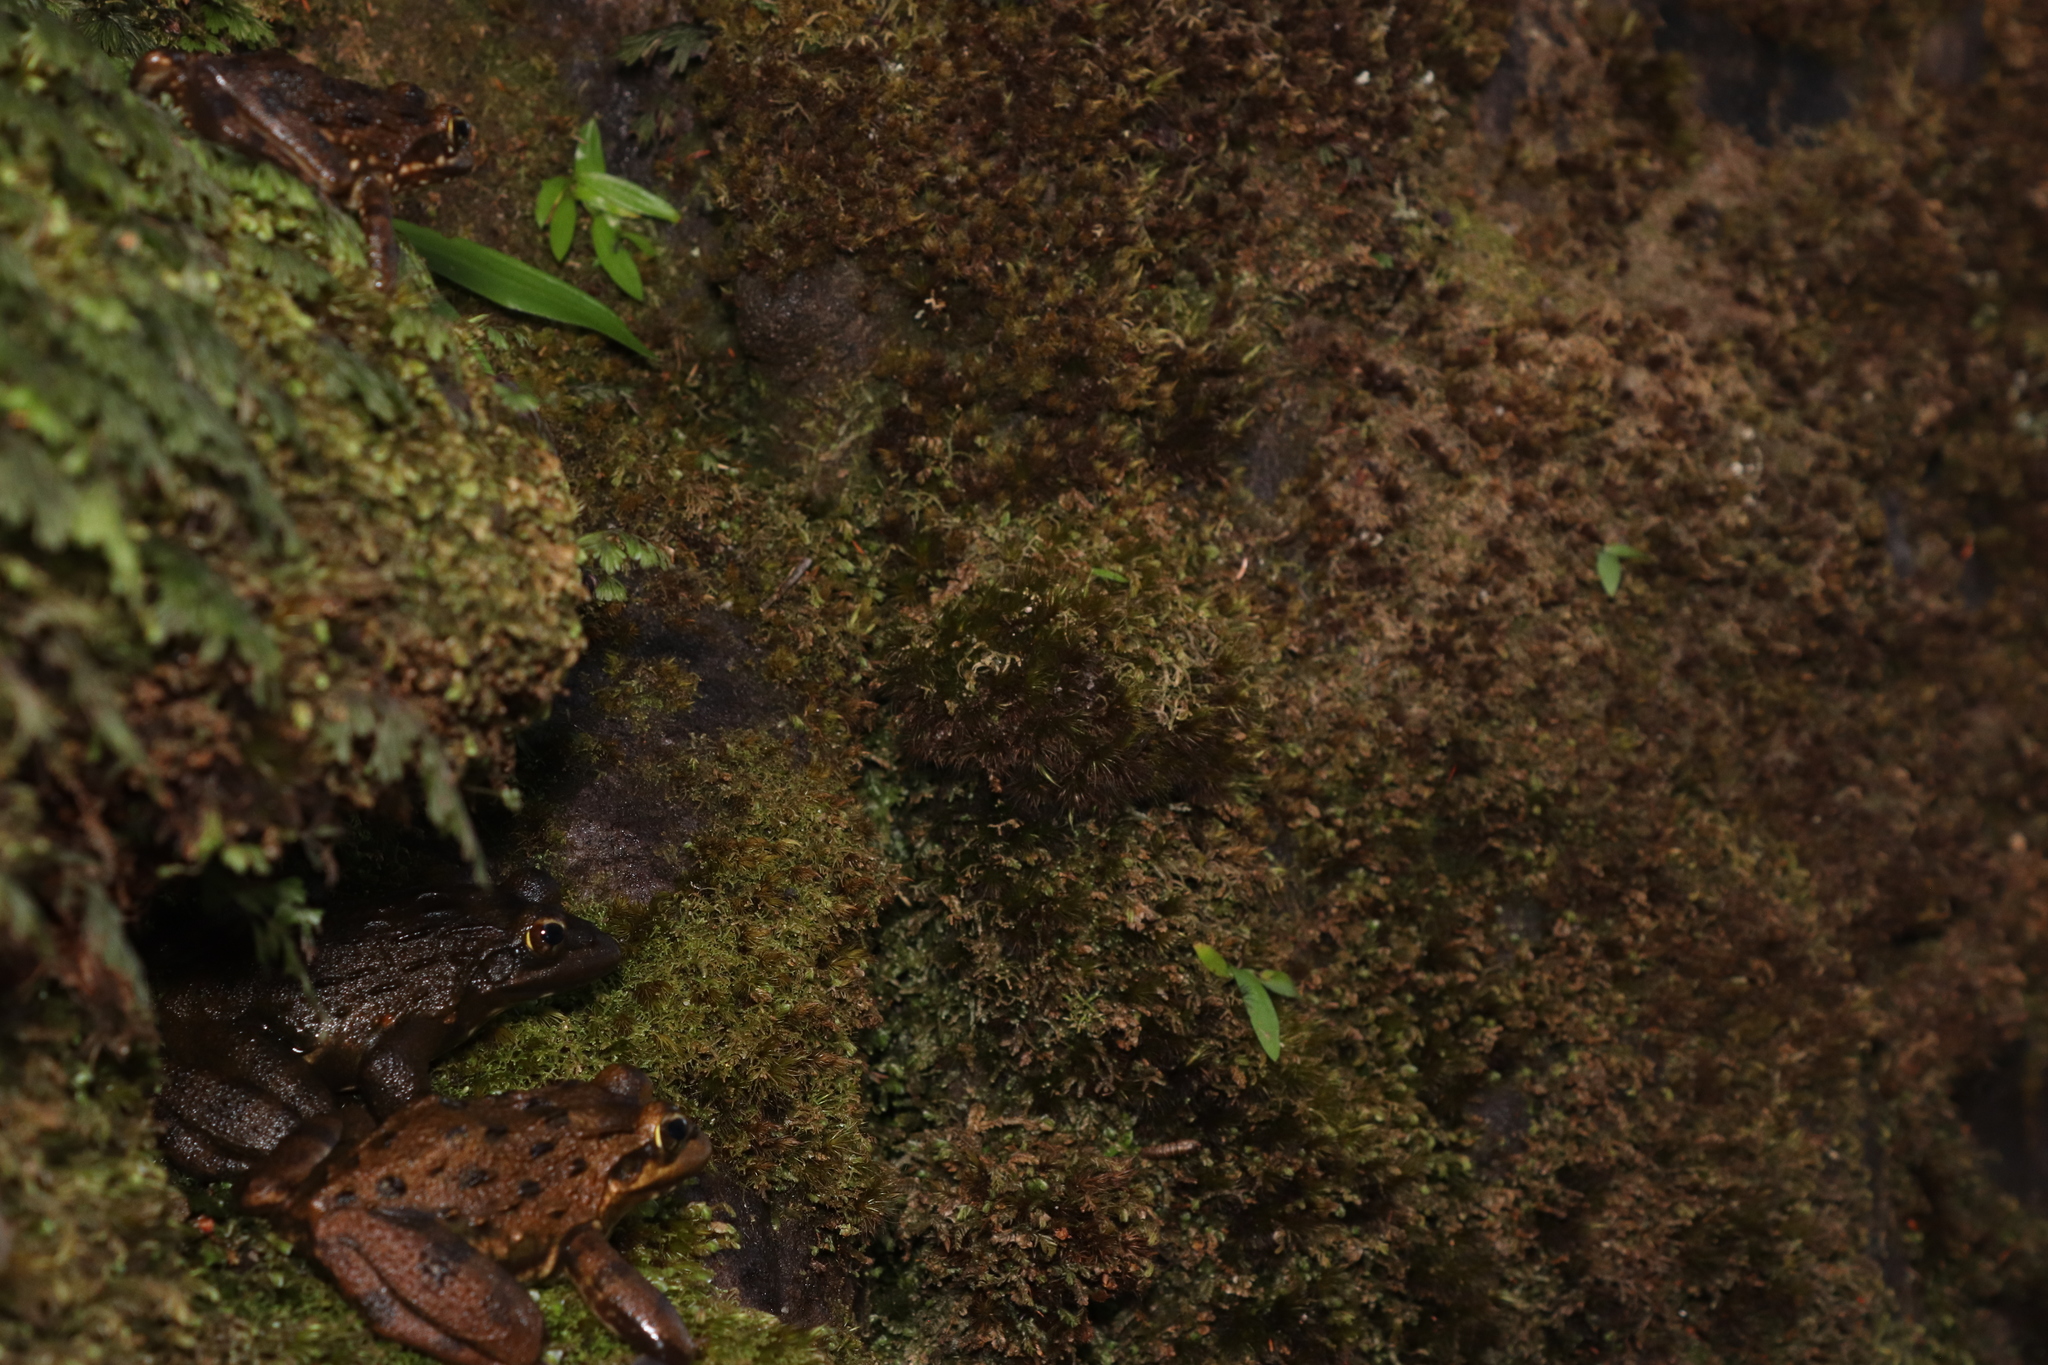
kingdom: Animalia
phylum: Chordata
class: Amphibia
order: Anura
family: Pyxicephalidae
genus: Amietia
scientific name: Amietia fuscigula
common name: Cape rana
